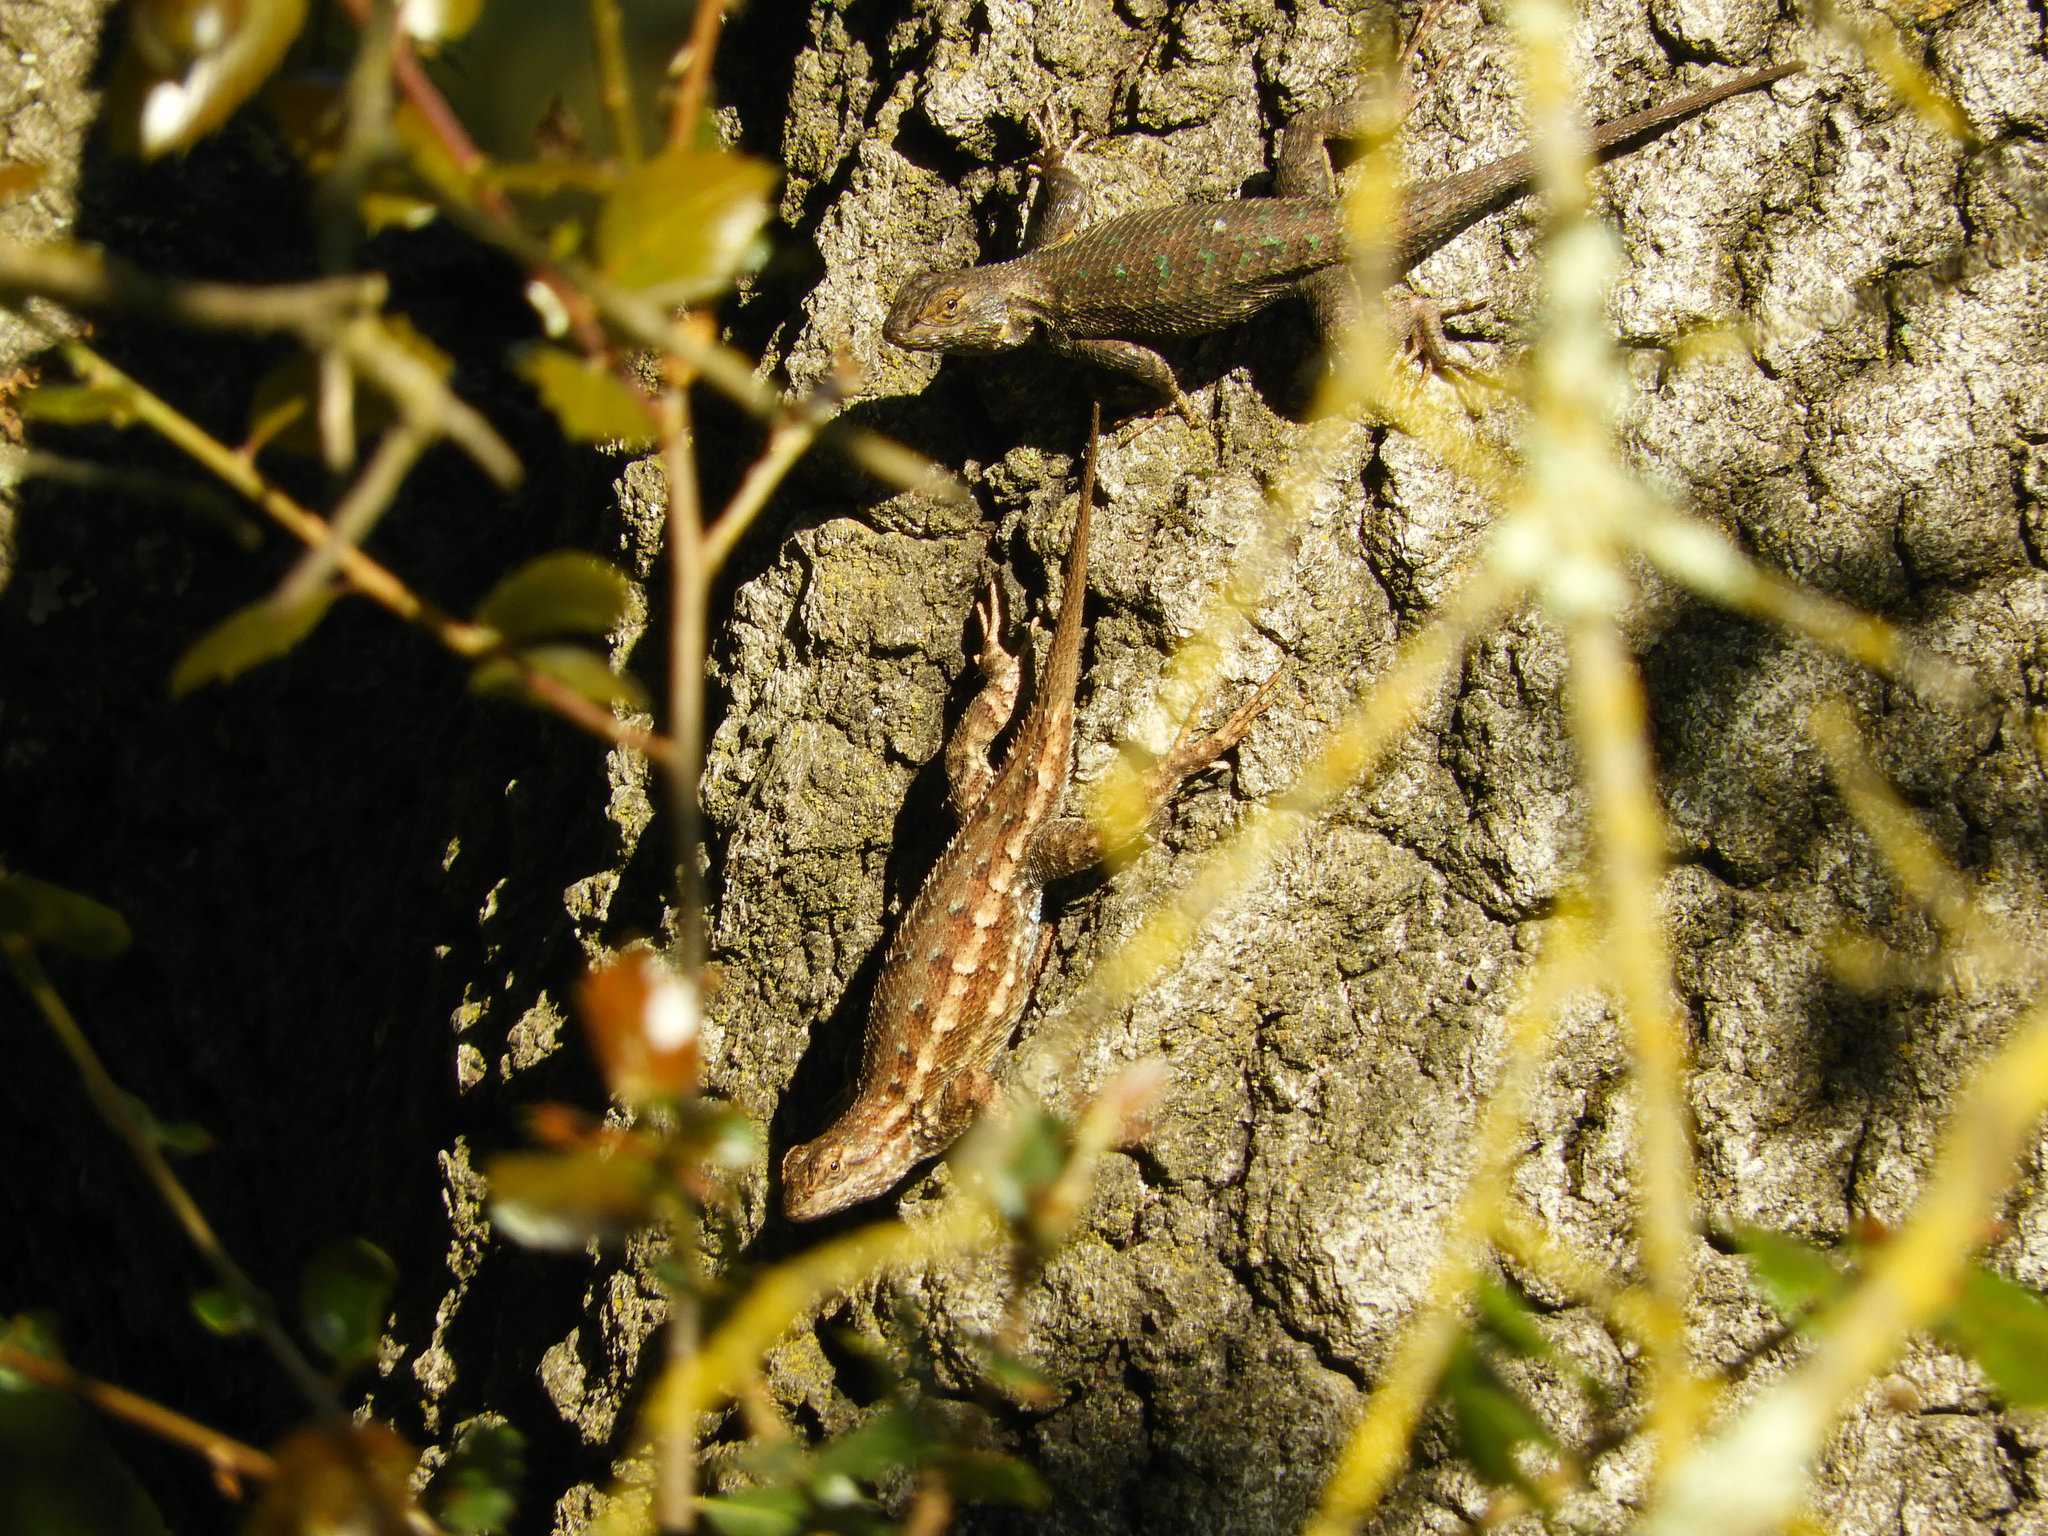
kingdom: Animalia
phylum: Chordata
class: Squamata
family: Phrynosomatidae
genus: Sceloporus
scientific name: Sceloporus occidentalis
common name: Western fence lizard
